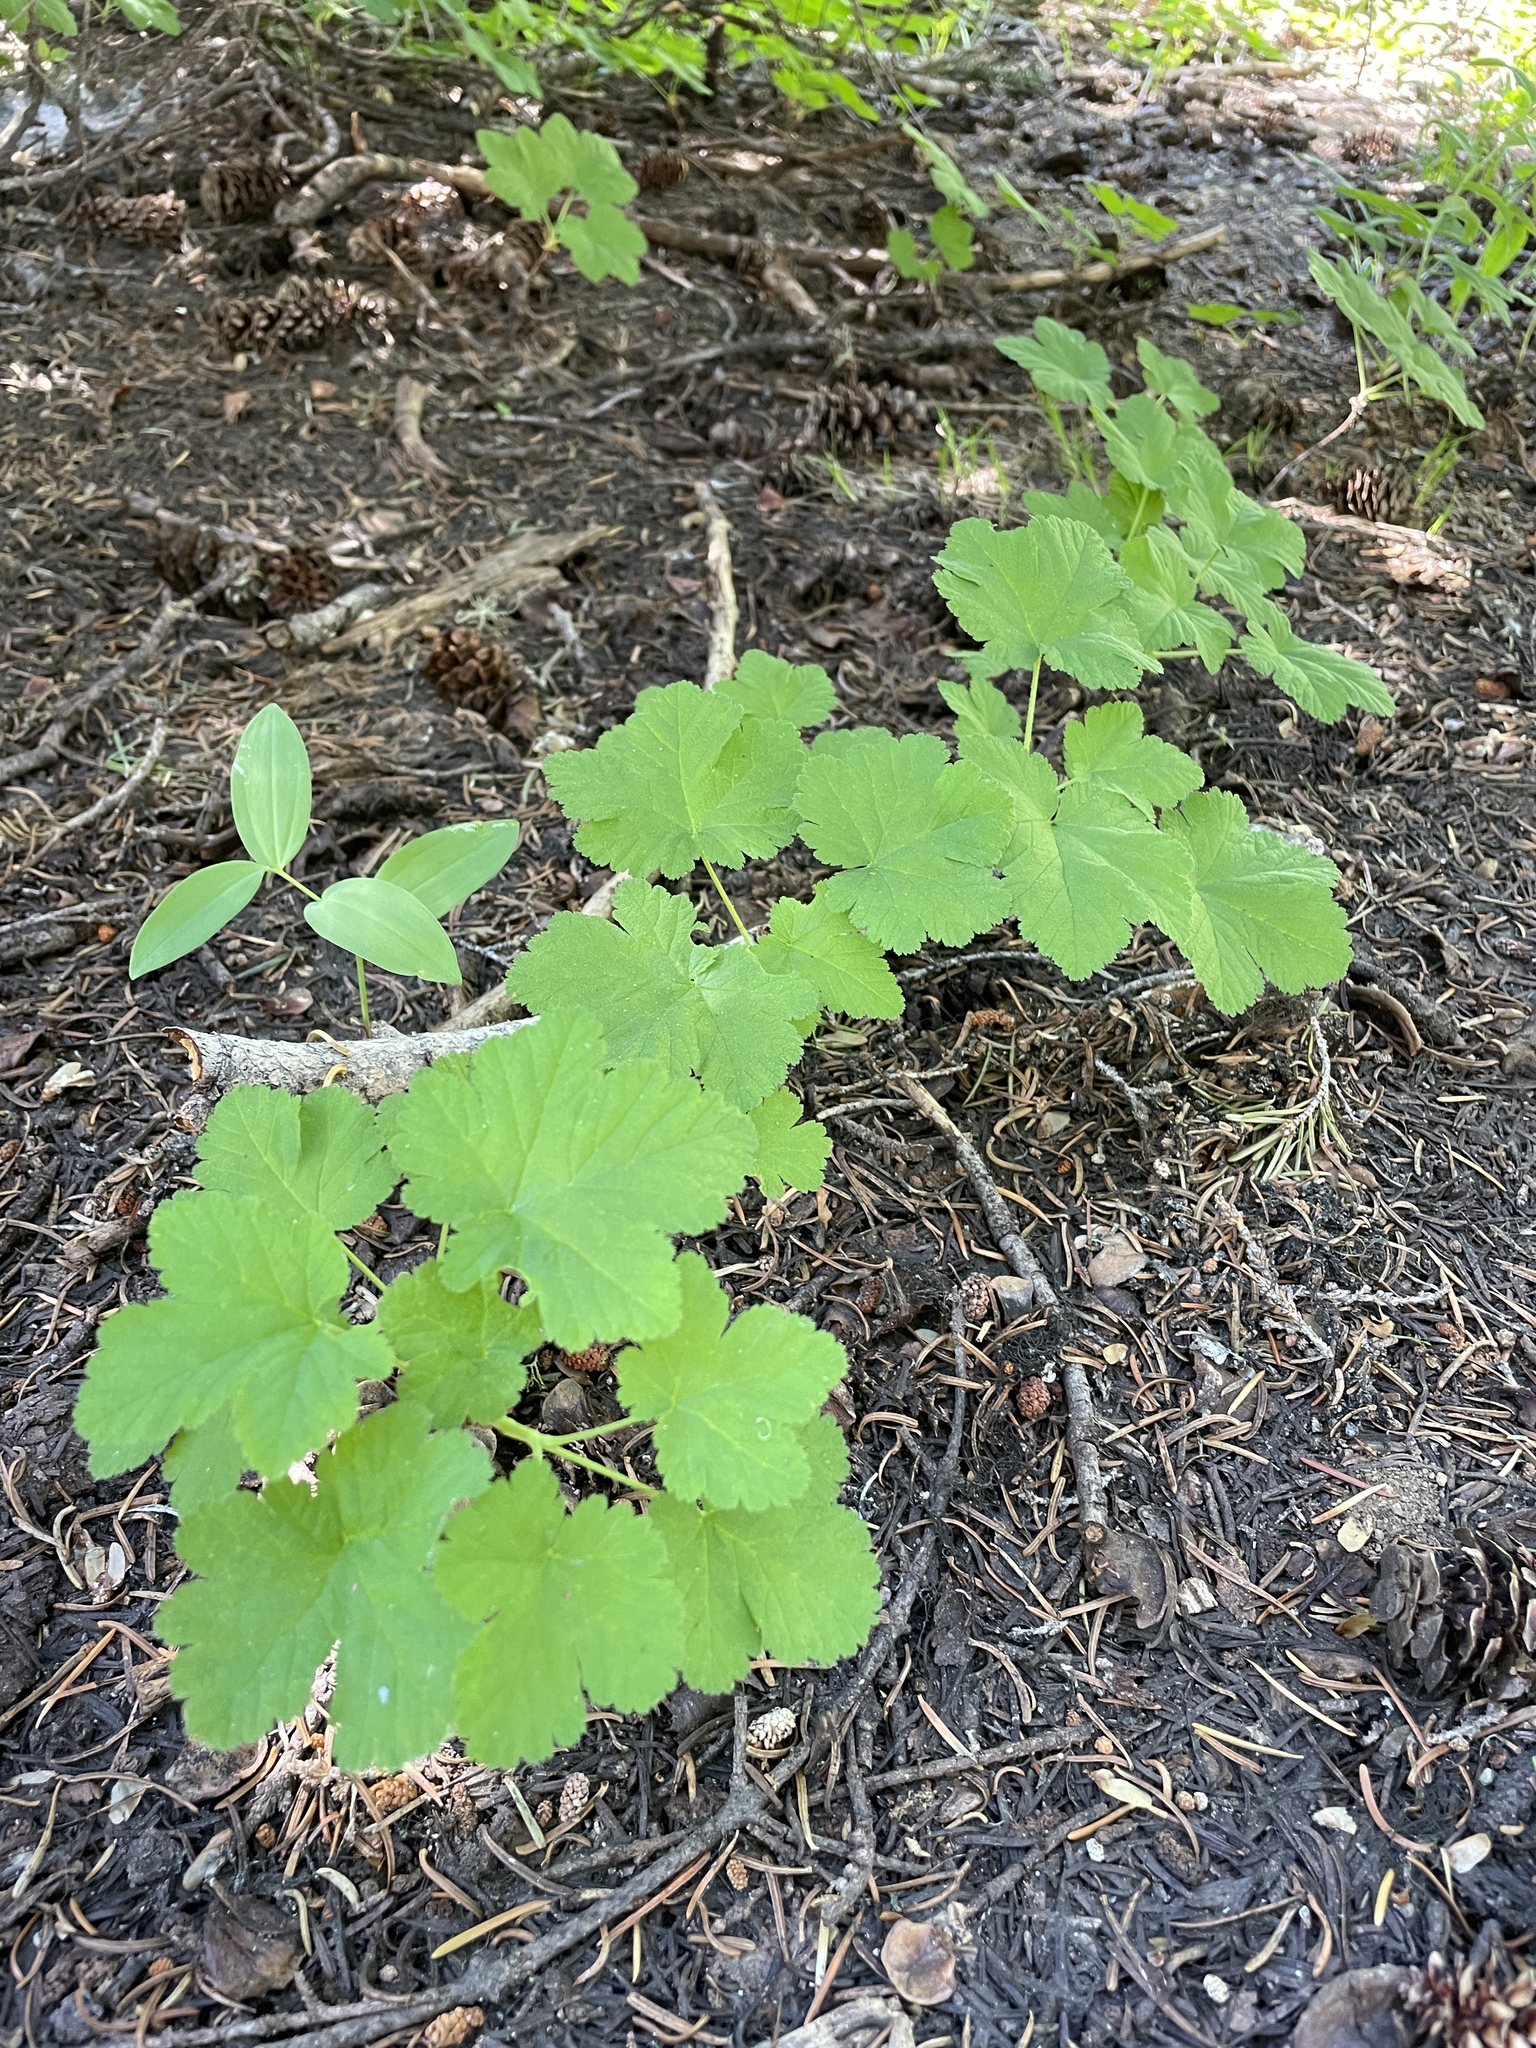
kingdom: Plantae
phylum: Tracheophyta
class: Magnoliopsida
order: Saxifragales
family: Grossulariaceae
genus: Ribes
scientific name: Ribes erythrocarpum
